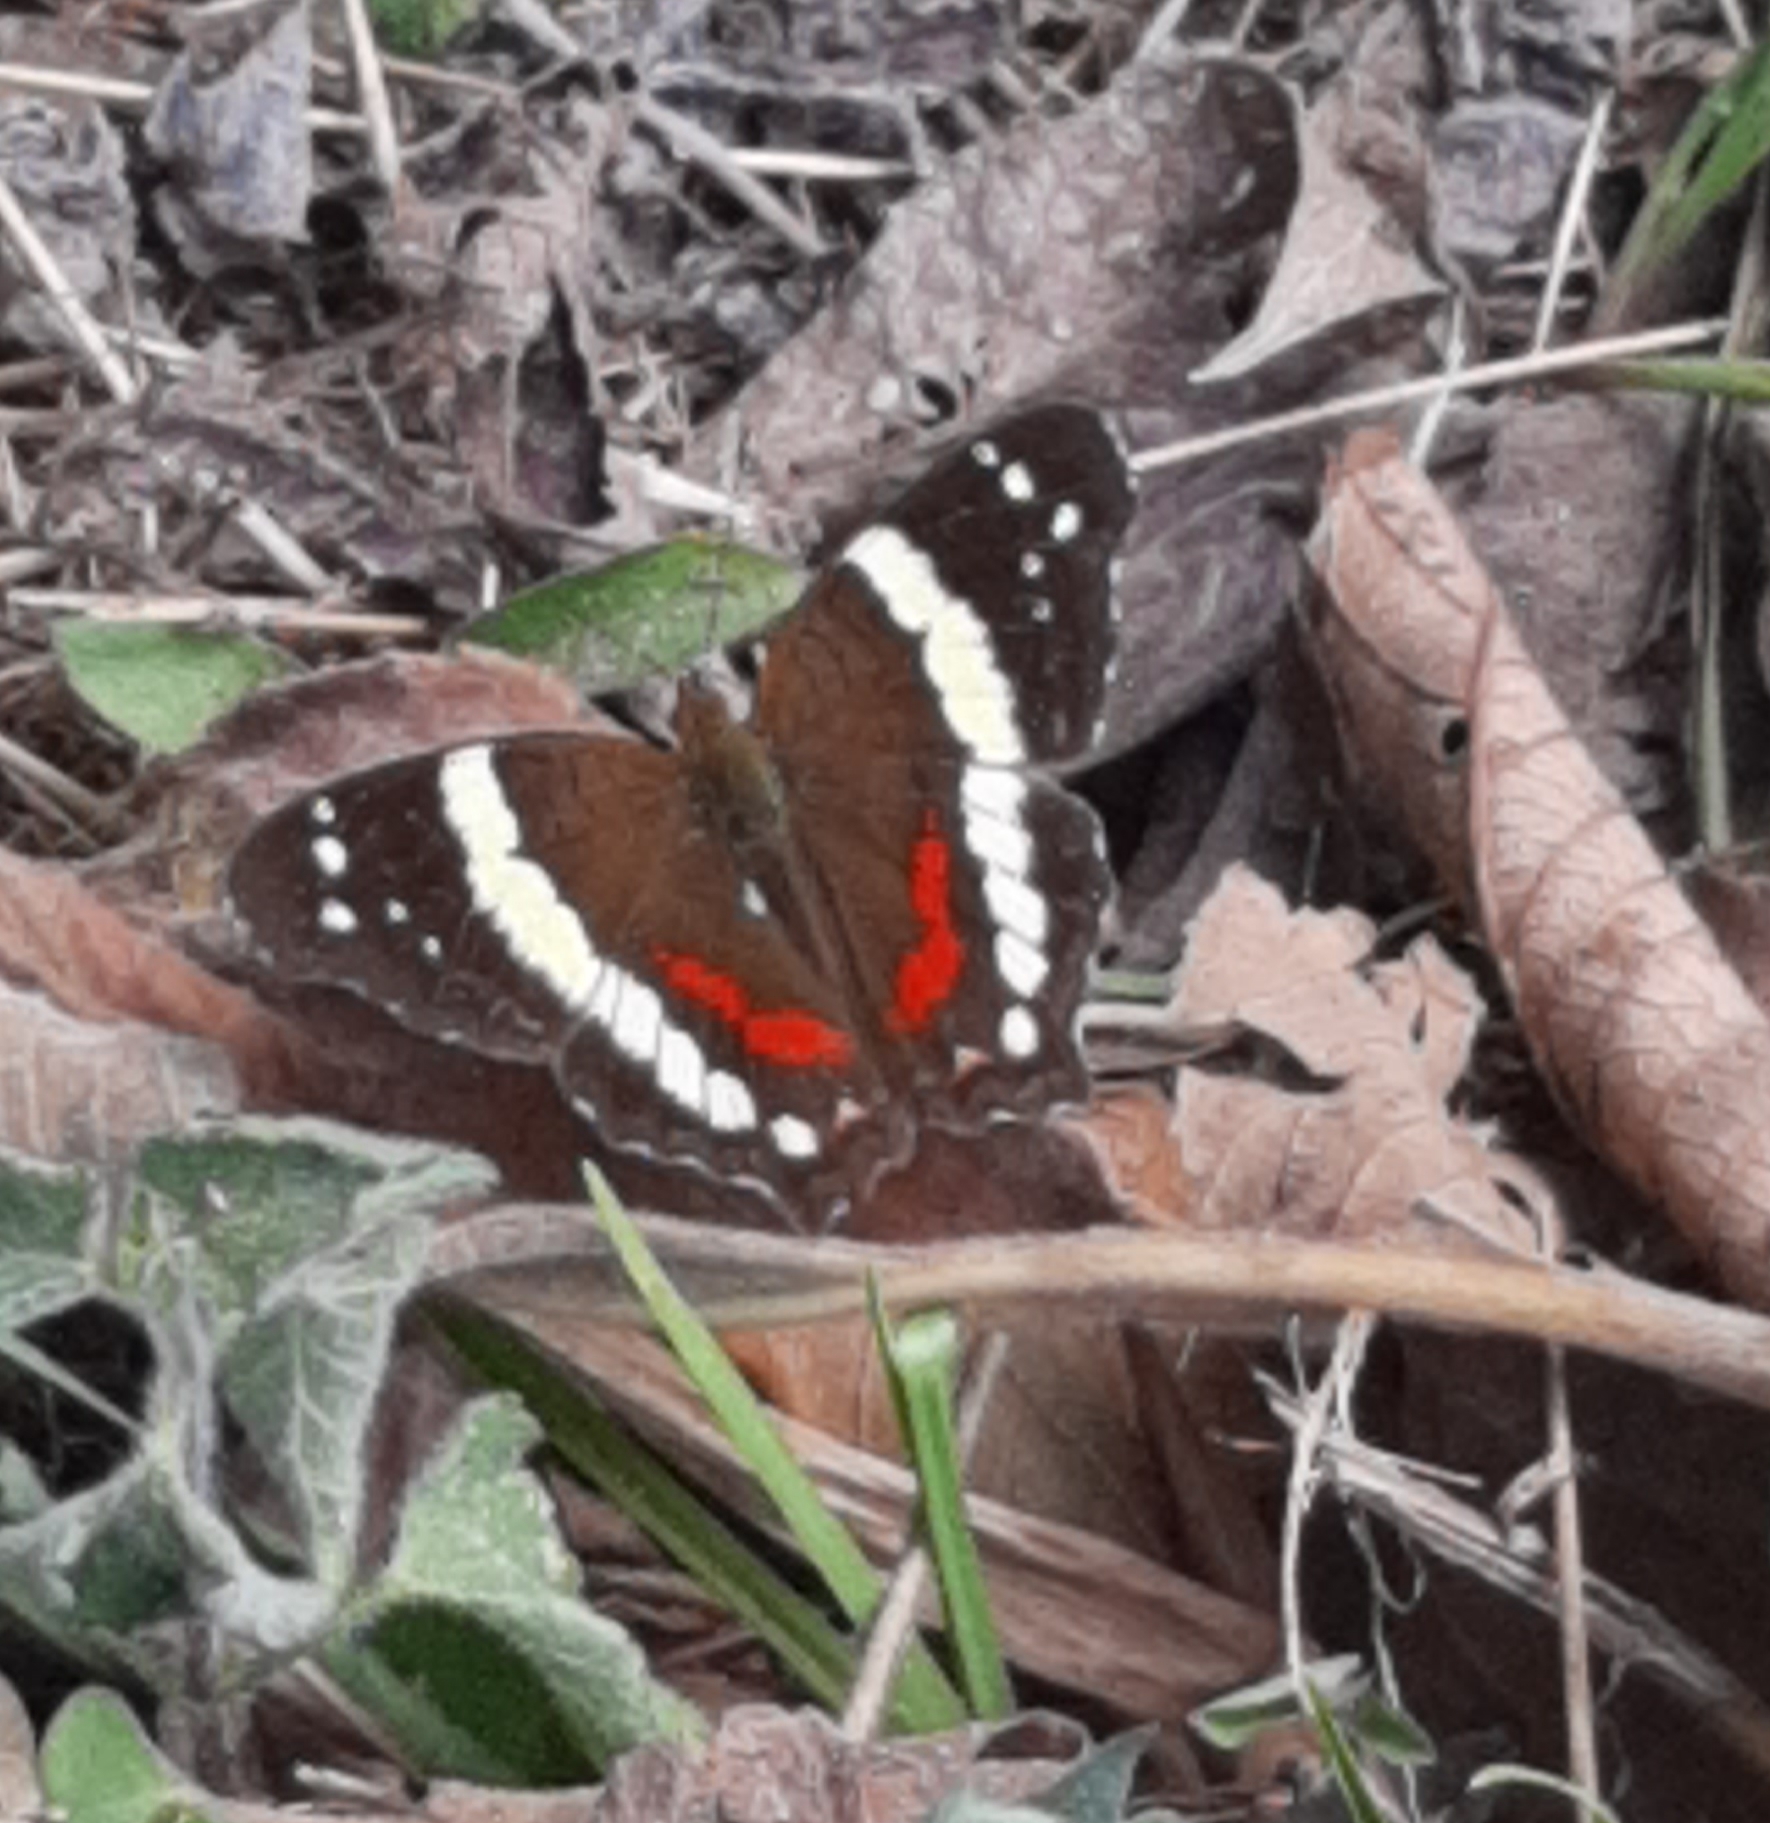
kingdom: Animalia
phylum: Arthropoda
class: Insecta
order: Lepidoptera
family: Nymphalidae
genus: Anartia
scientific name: Anartia fatima
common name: Banded peacock
